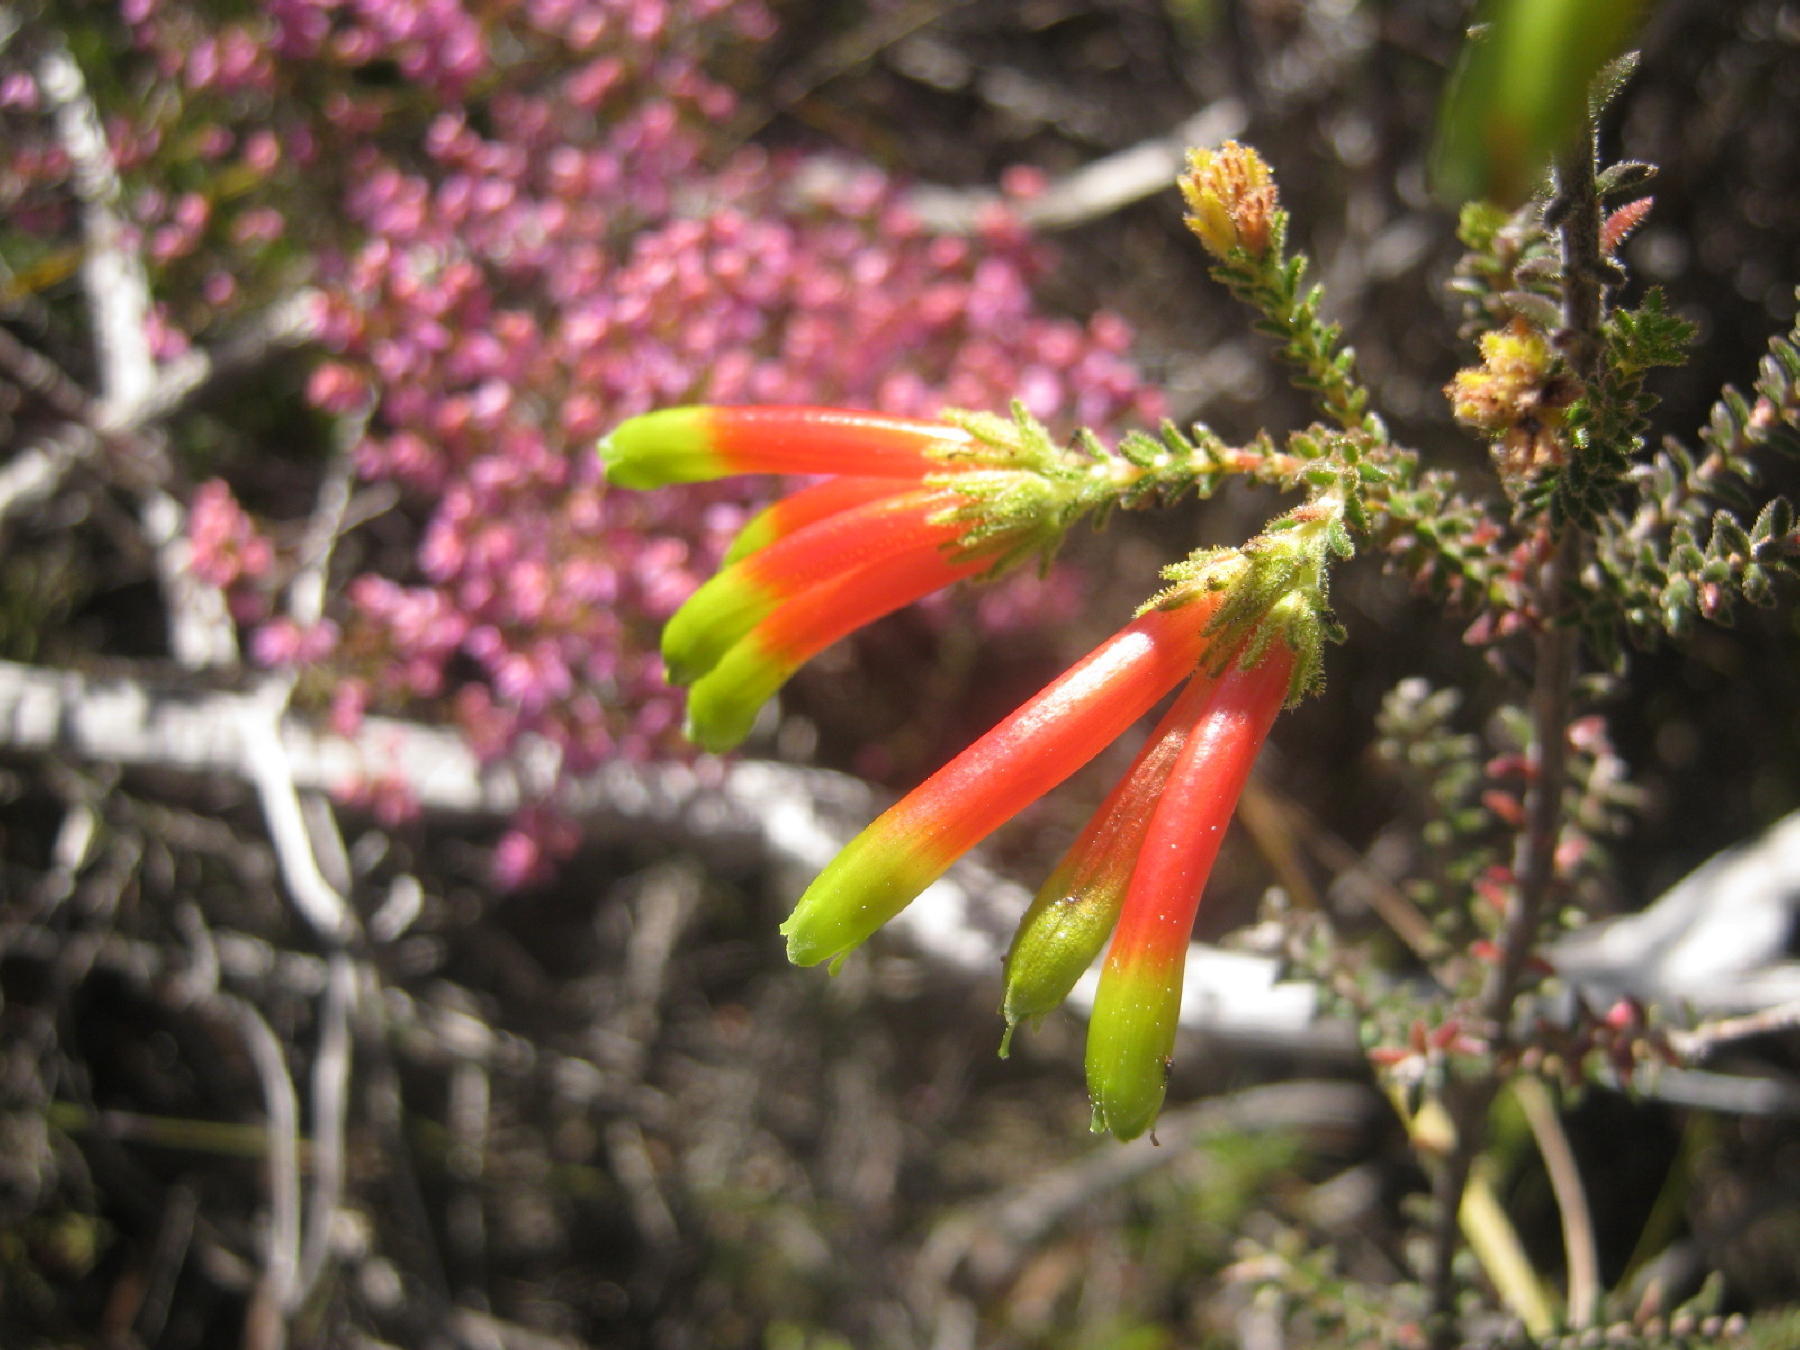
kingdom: Plantae
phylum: Tracheophyta
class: Magnoliopsida
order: Ericales
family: Ericaceae
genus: Erica
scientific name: Erica croceovirens
